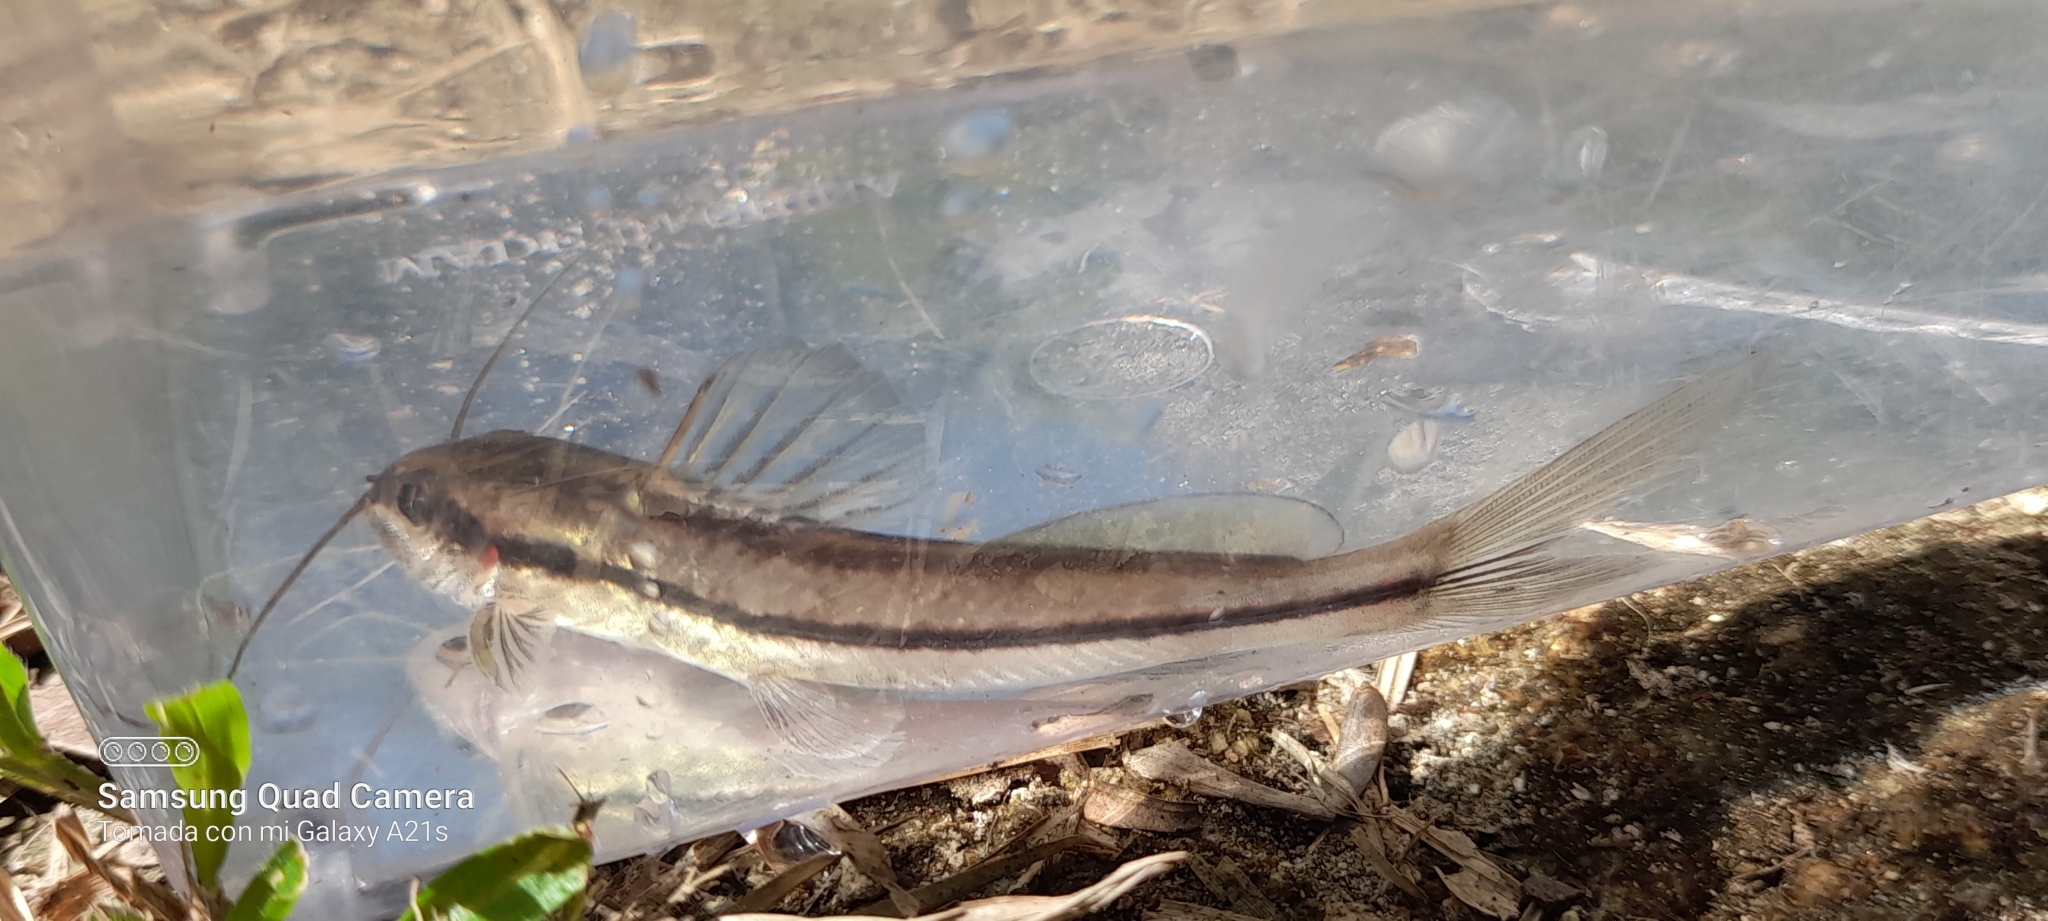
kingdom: Animalia
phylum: Chordata
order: Siluriformes
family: Heptapteridae
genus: Pimelodella
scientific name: Pimelodella chagresi
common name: Catfish
